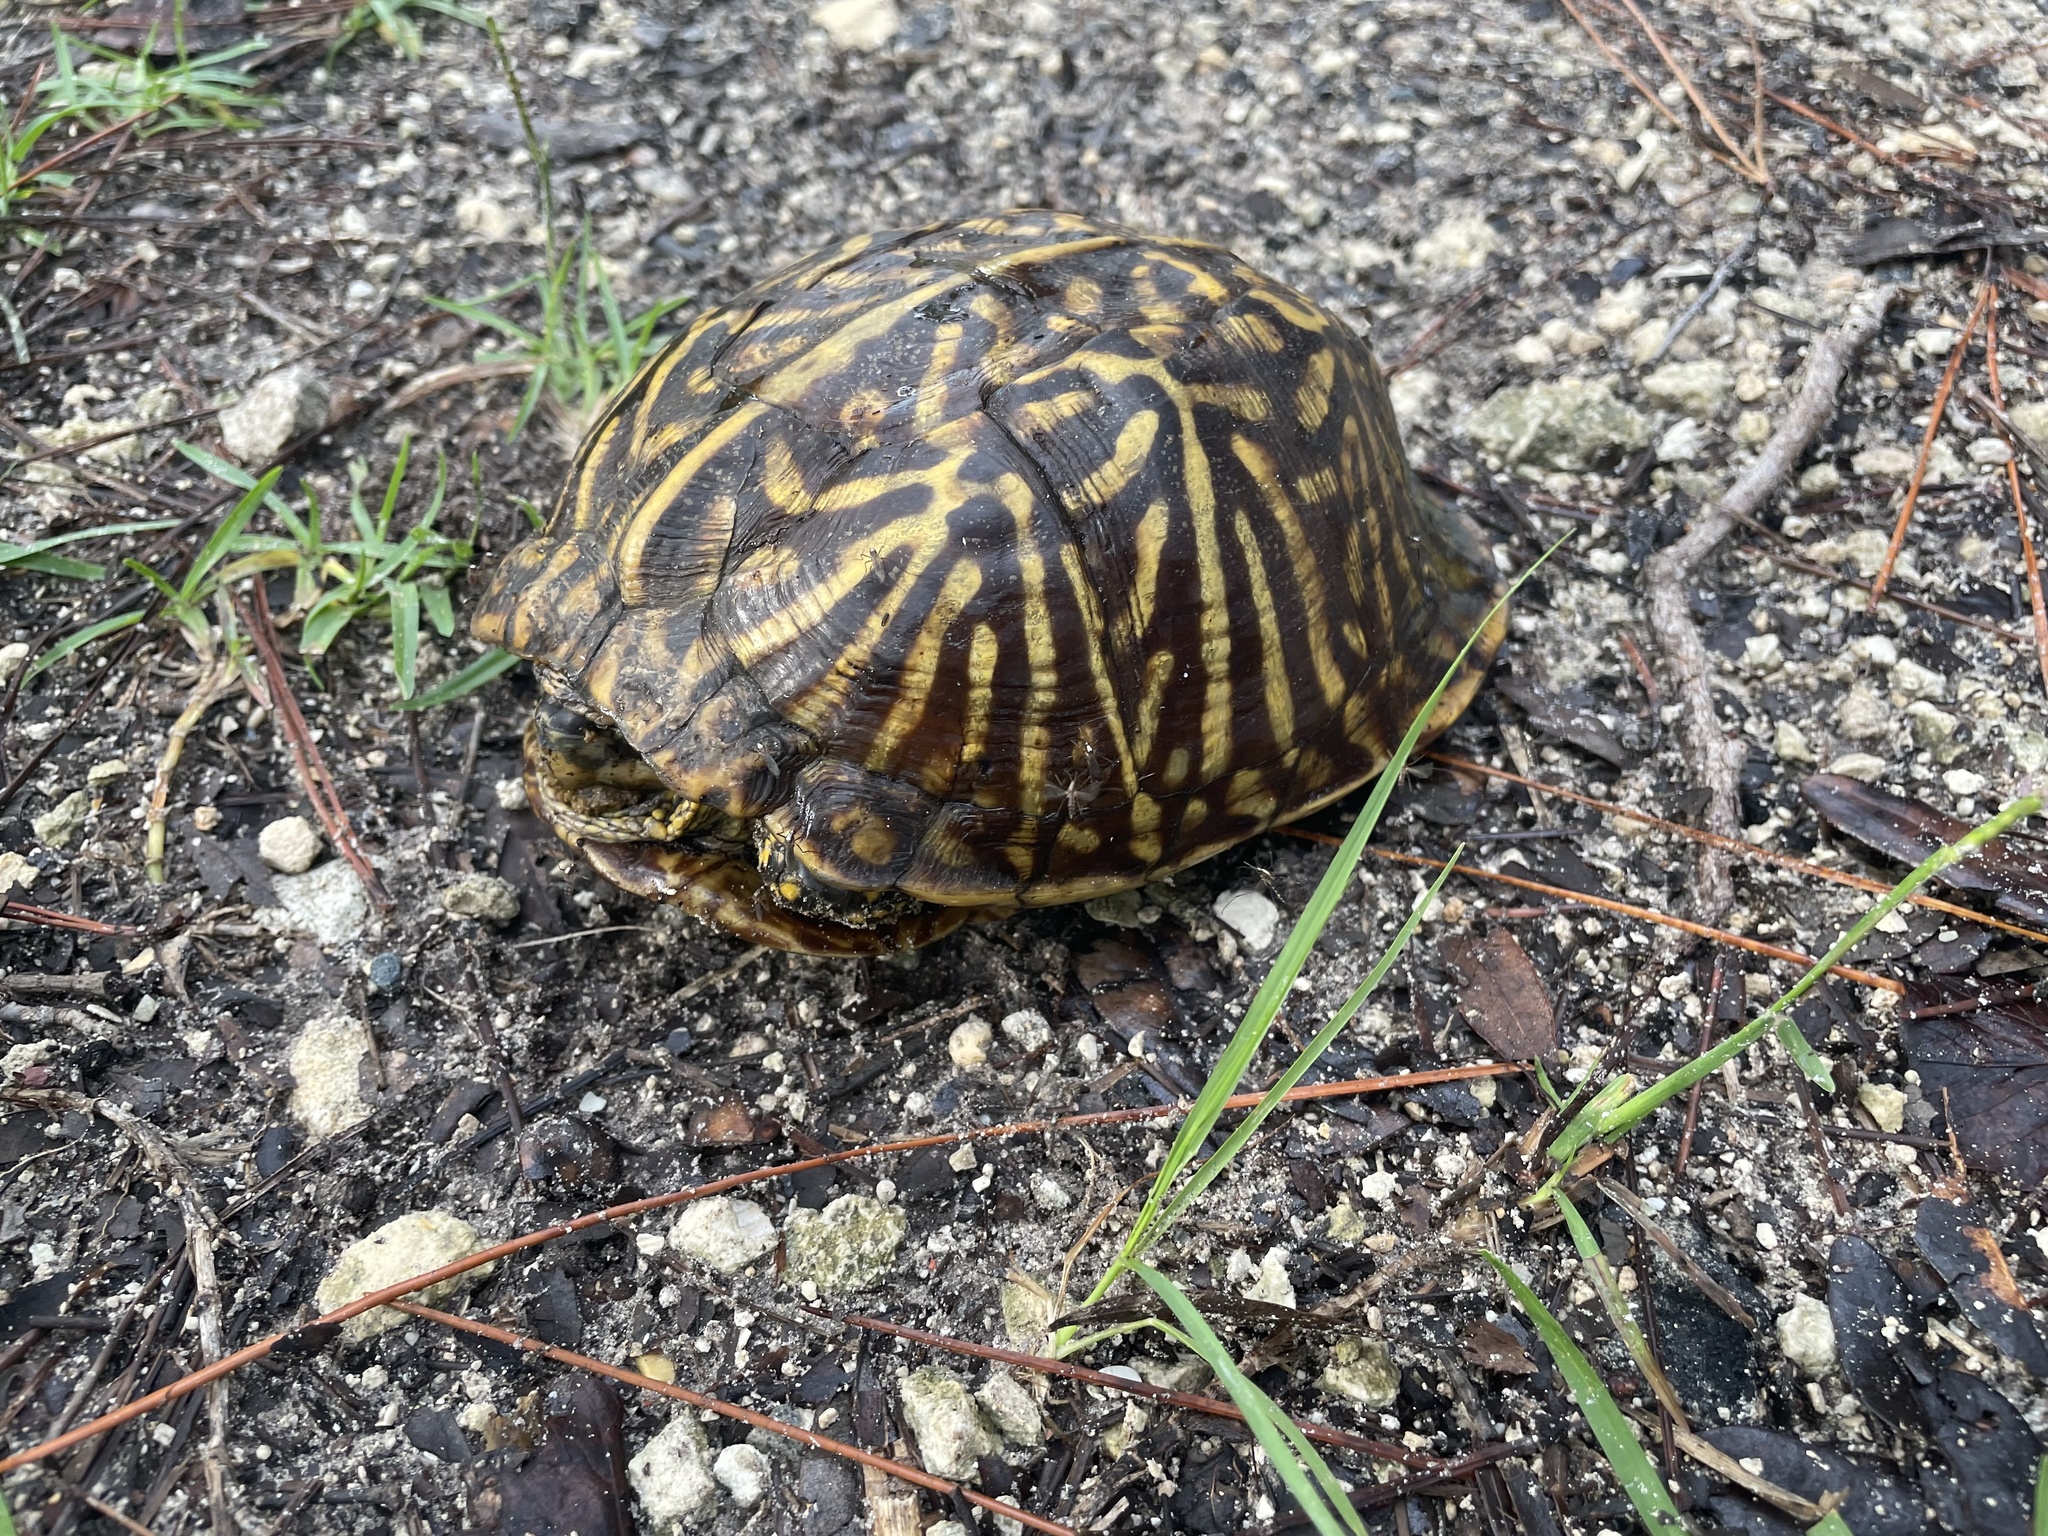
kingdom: Animalia
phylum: Chordata
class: Testudines
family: Emydidae
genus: Terrapene
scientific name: Terrapene carolina
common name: Common box turtle
